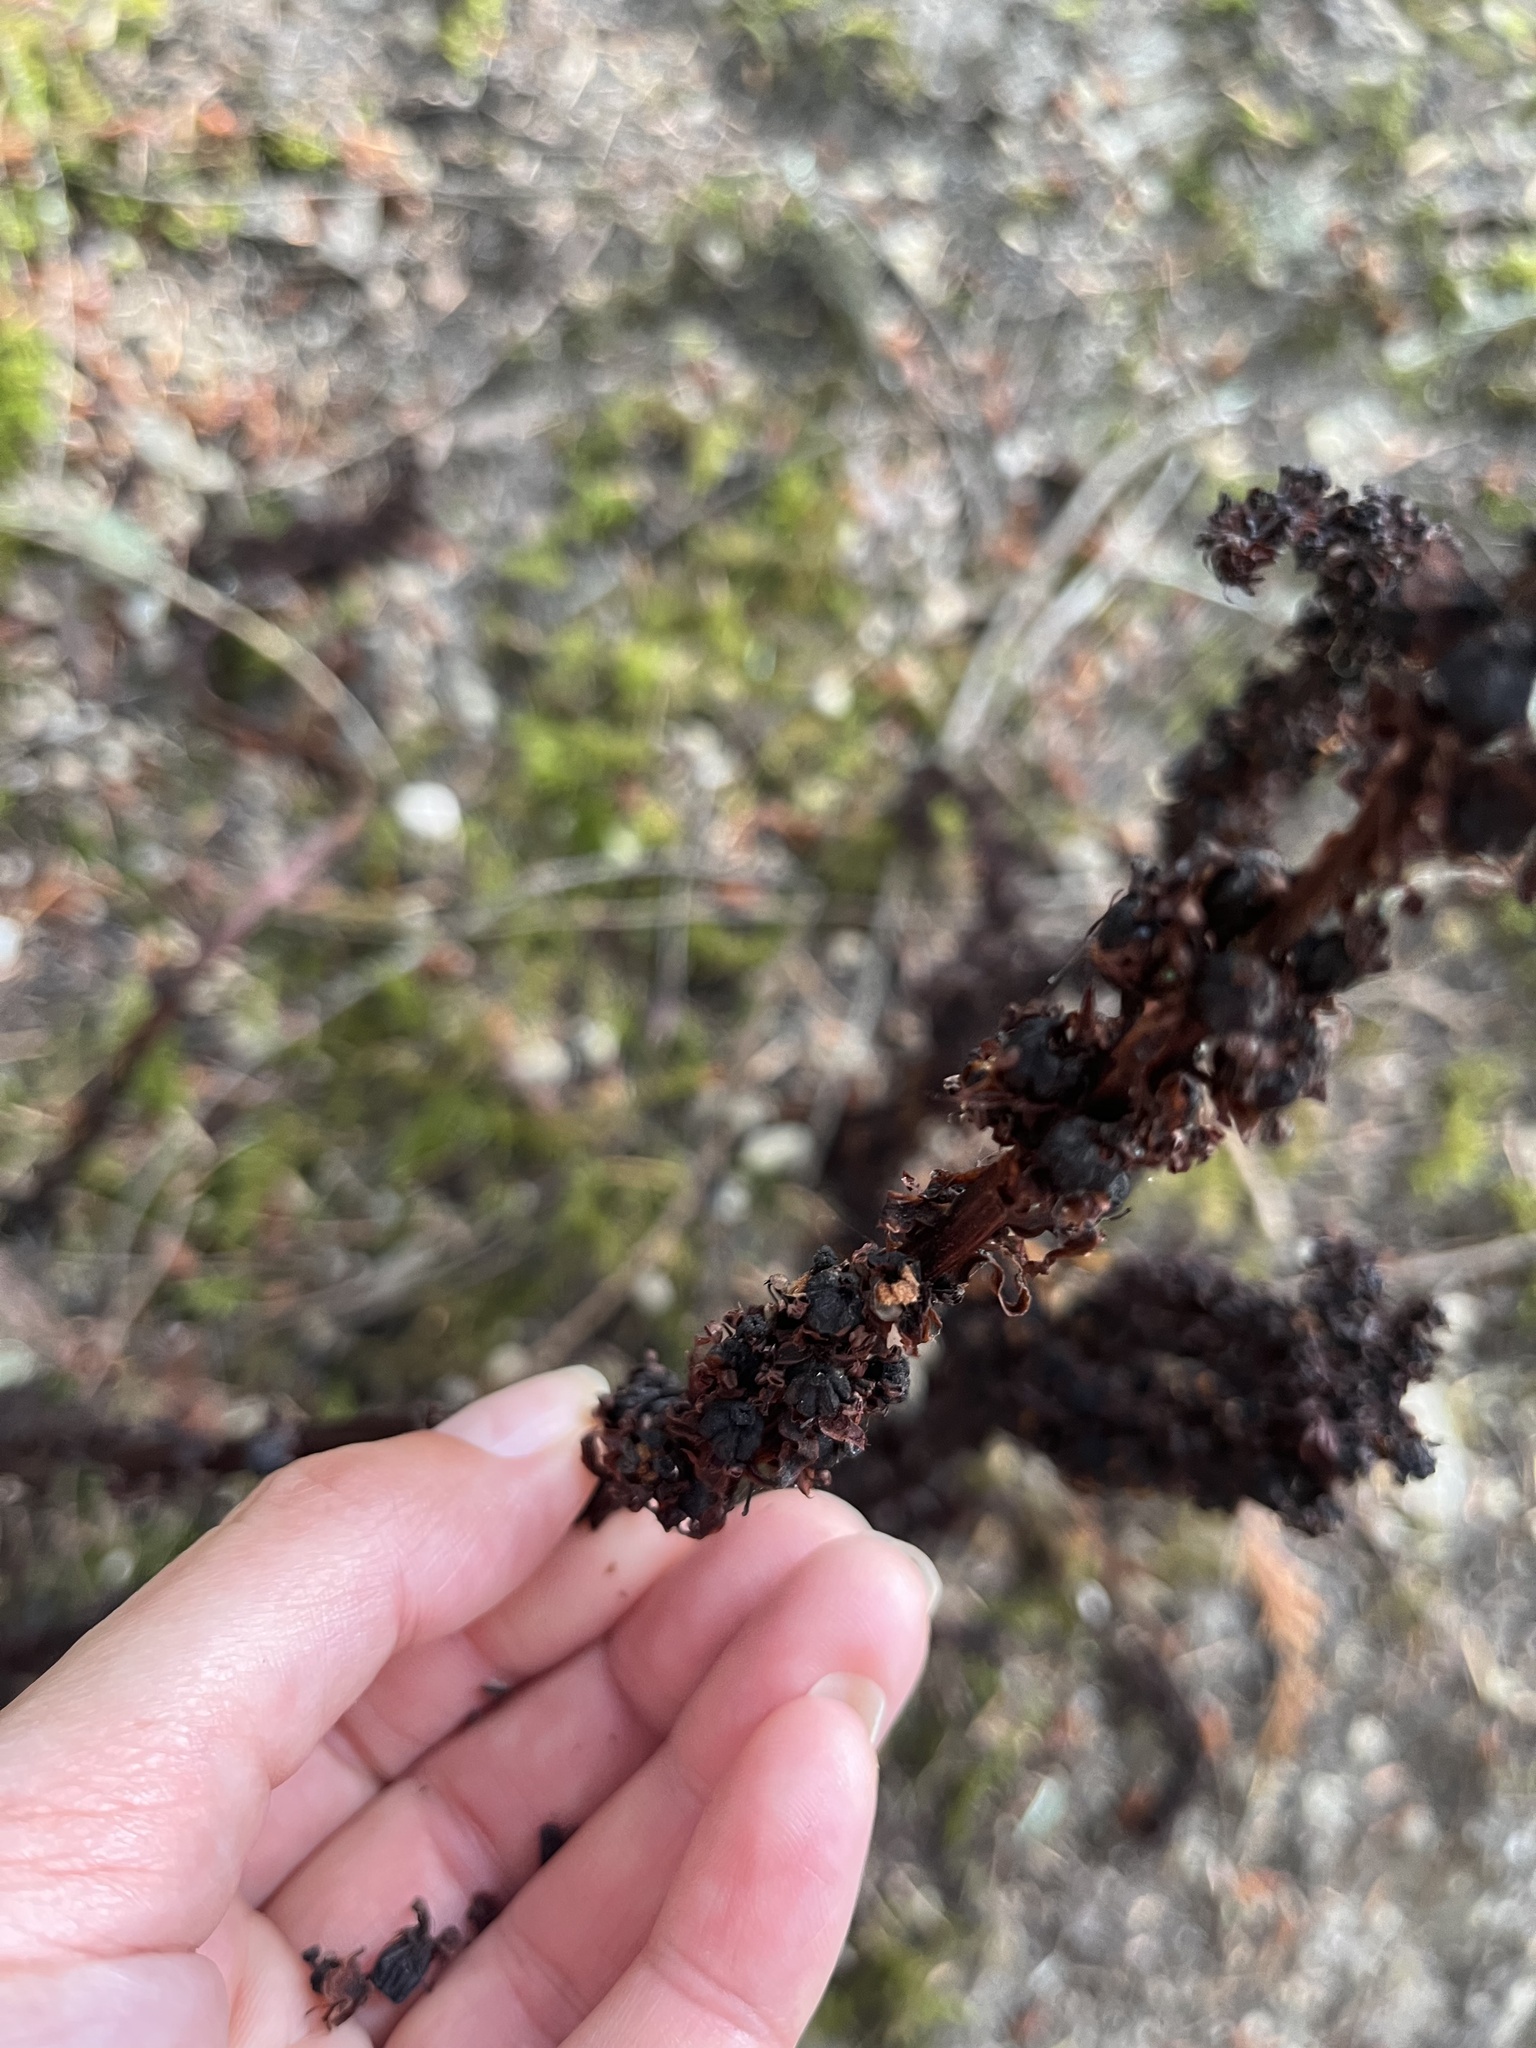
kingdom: Plantae
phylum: Tracheophyta
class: Magnoliopsida
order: Ericales
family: Ericaceae
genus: Allotropa
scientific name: Allotropa virgata
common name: Candy-striped allotropa
